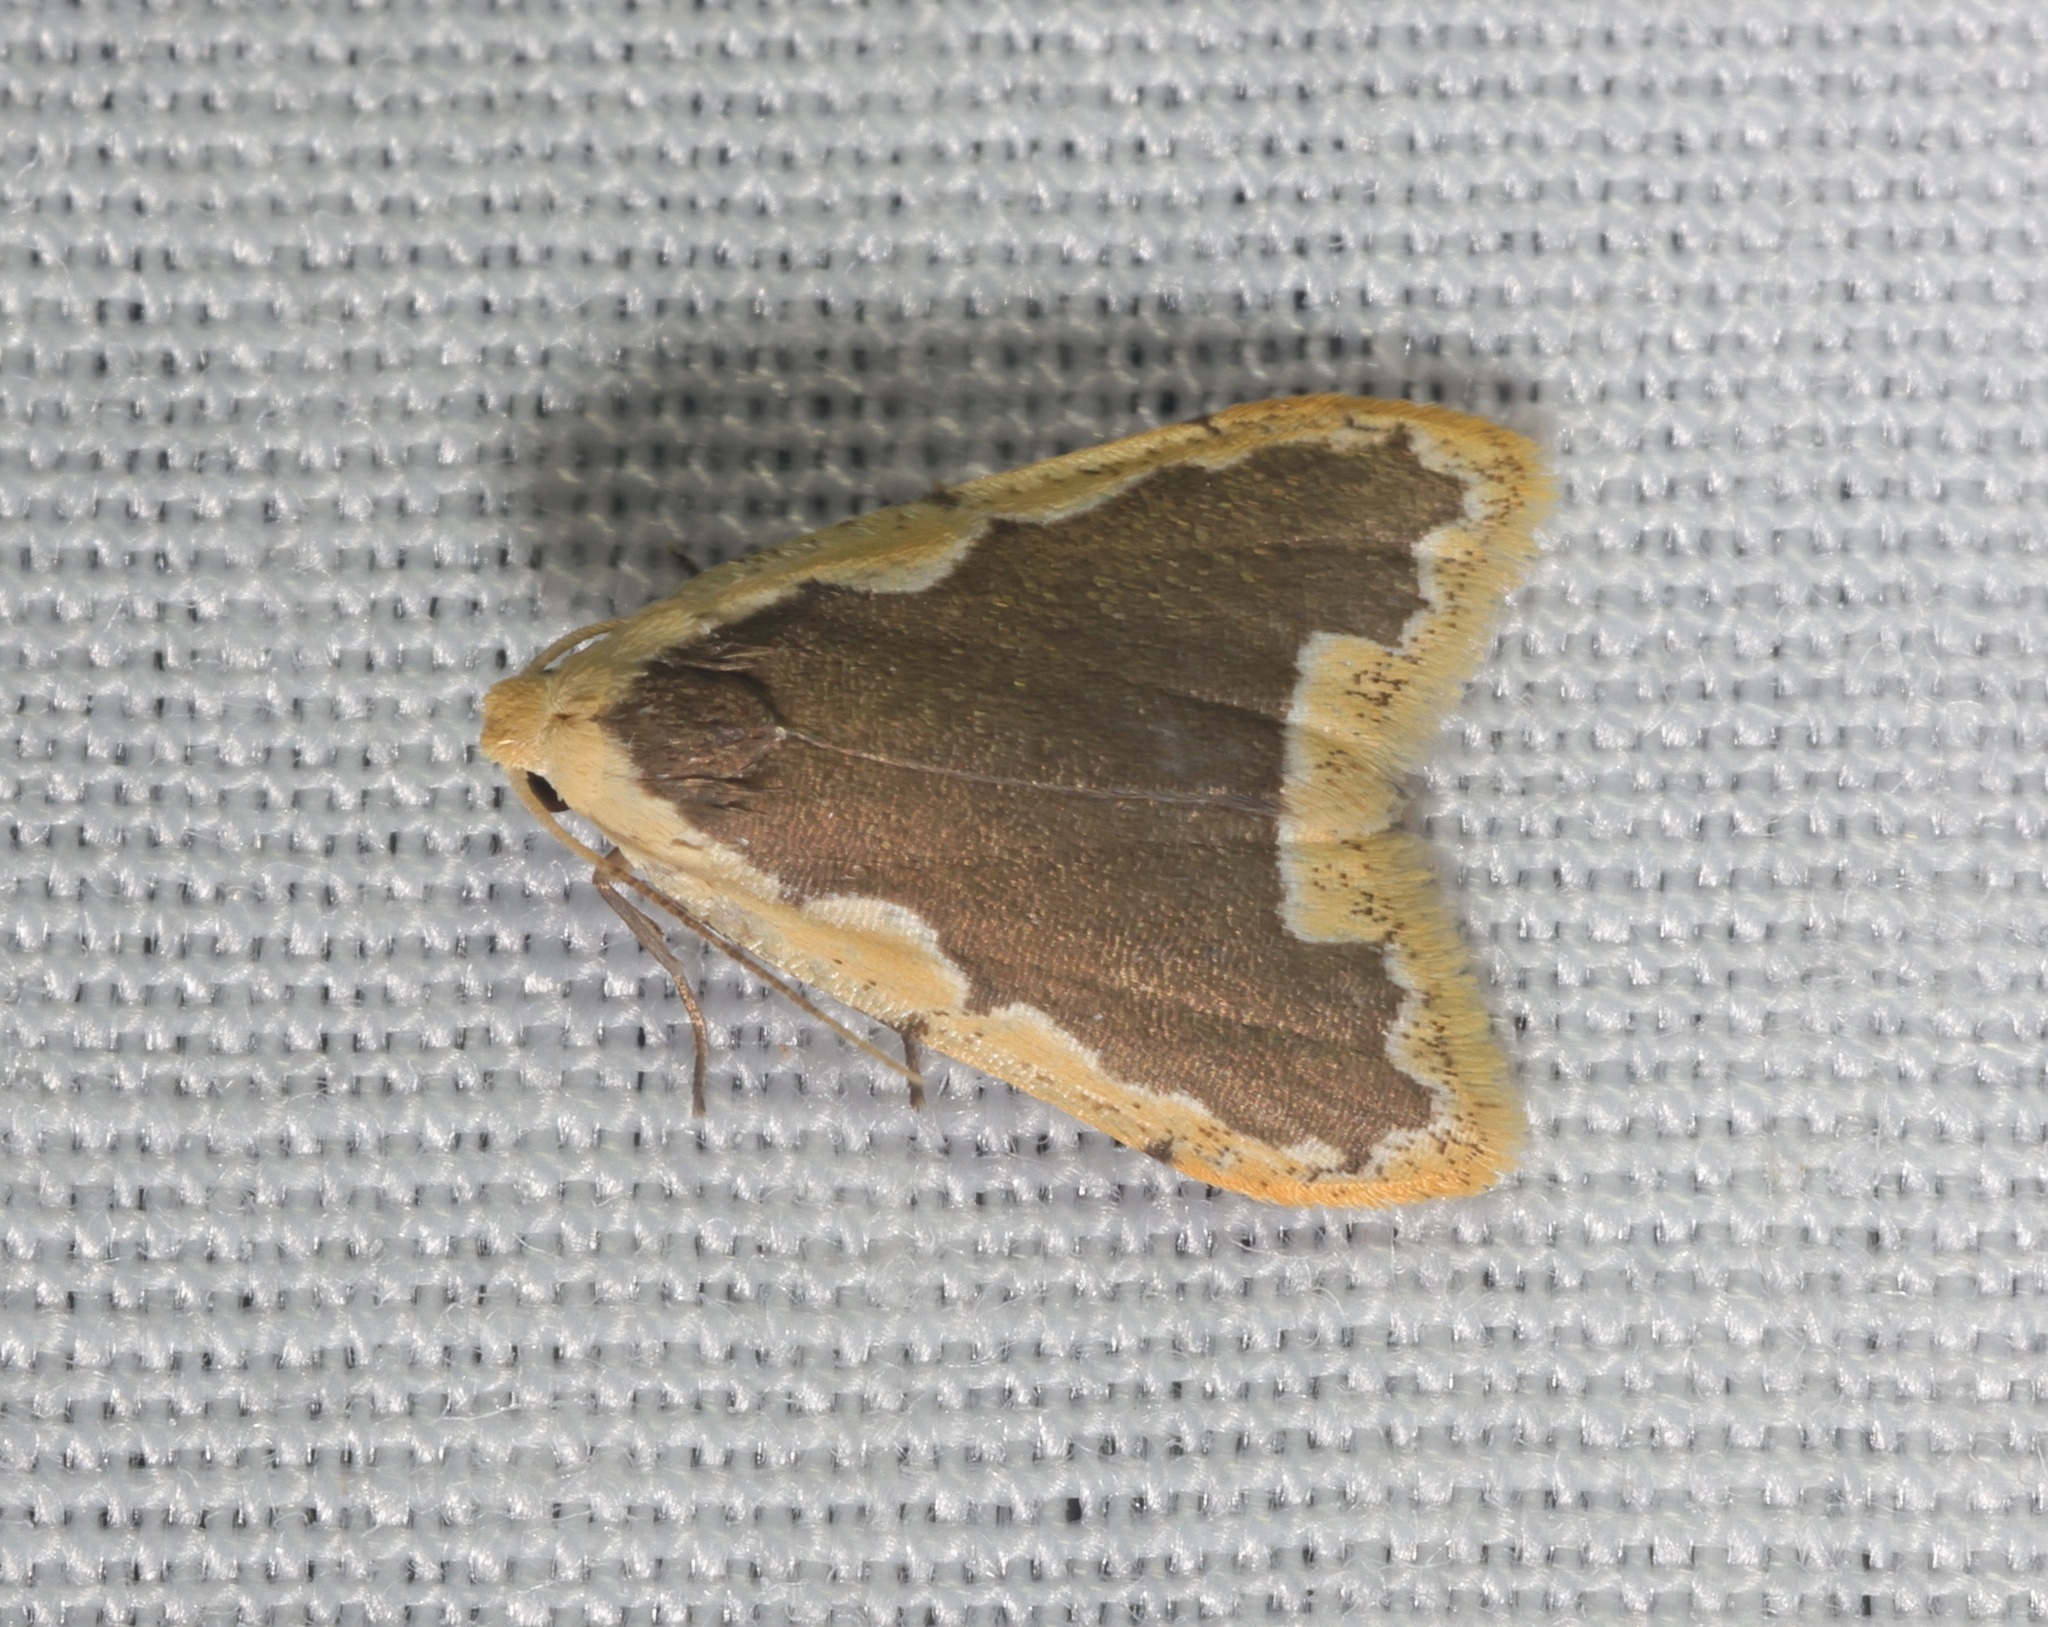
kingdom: Animalia
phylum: Arthropoda
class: Insecta
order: Lepidoptera
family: Erebidae
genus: Diduga
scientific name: Diduga flavicostata
